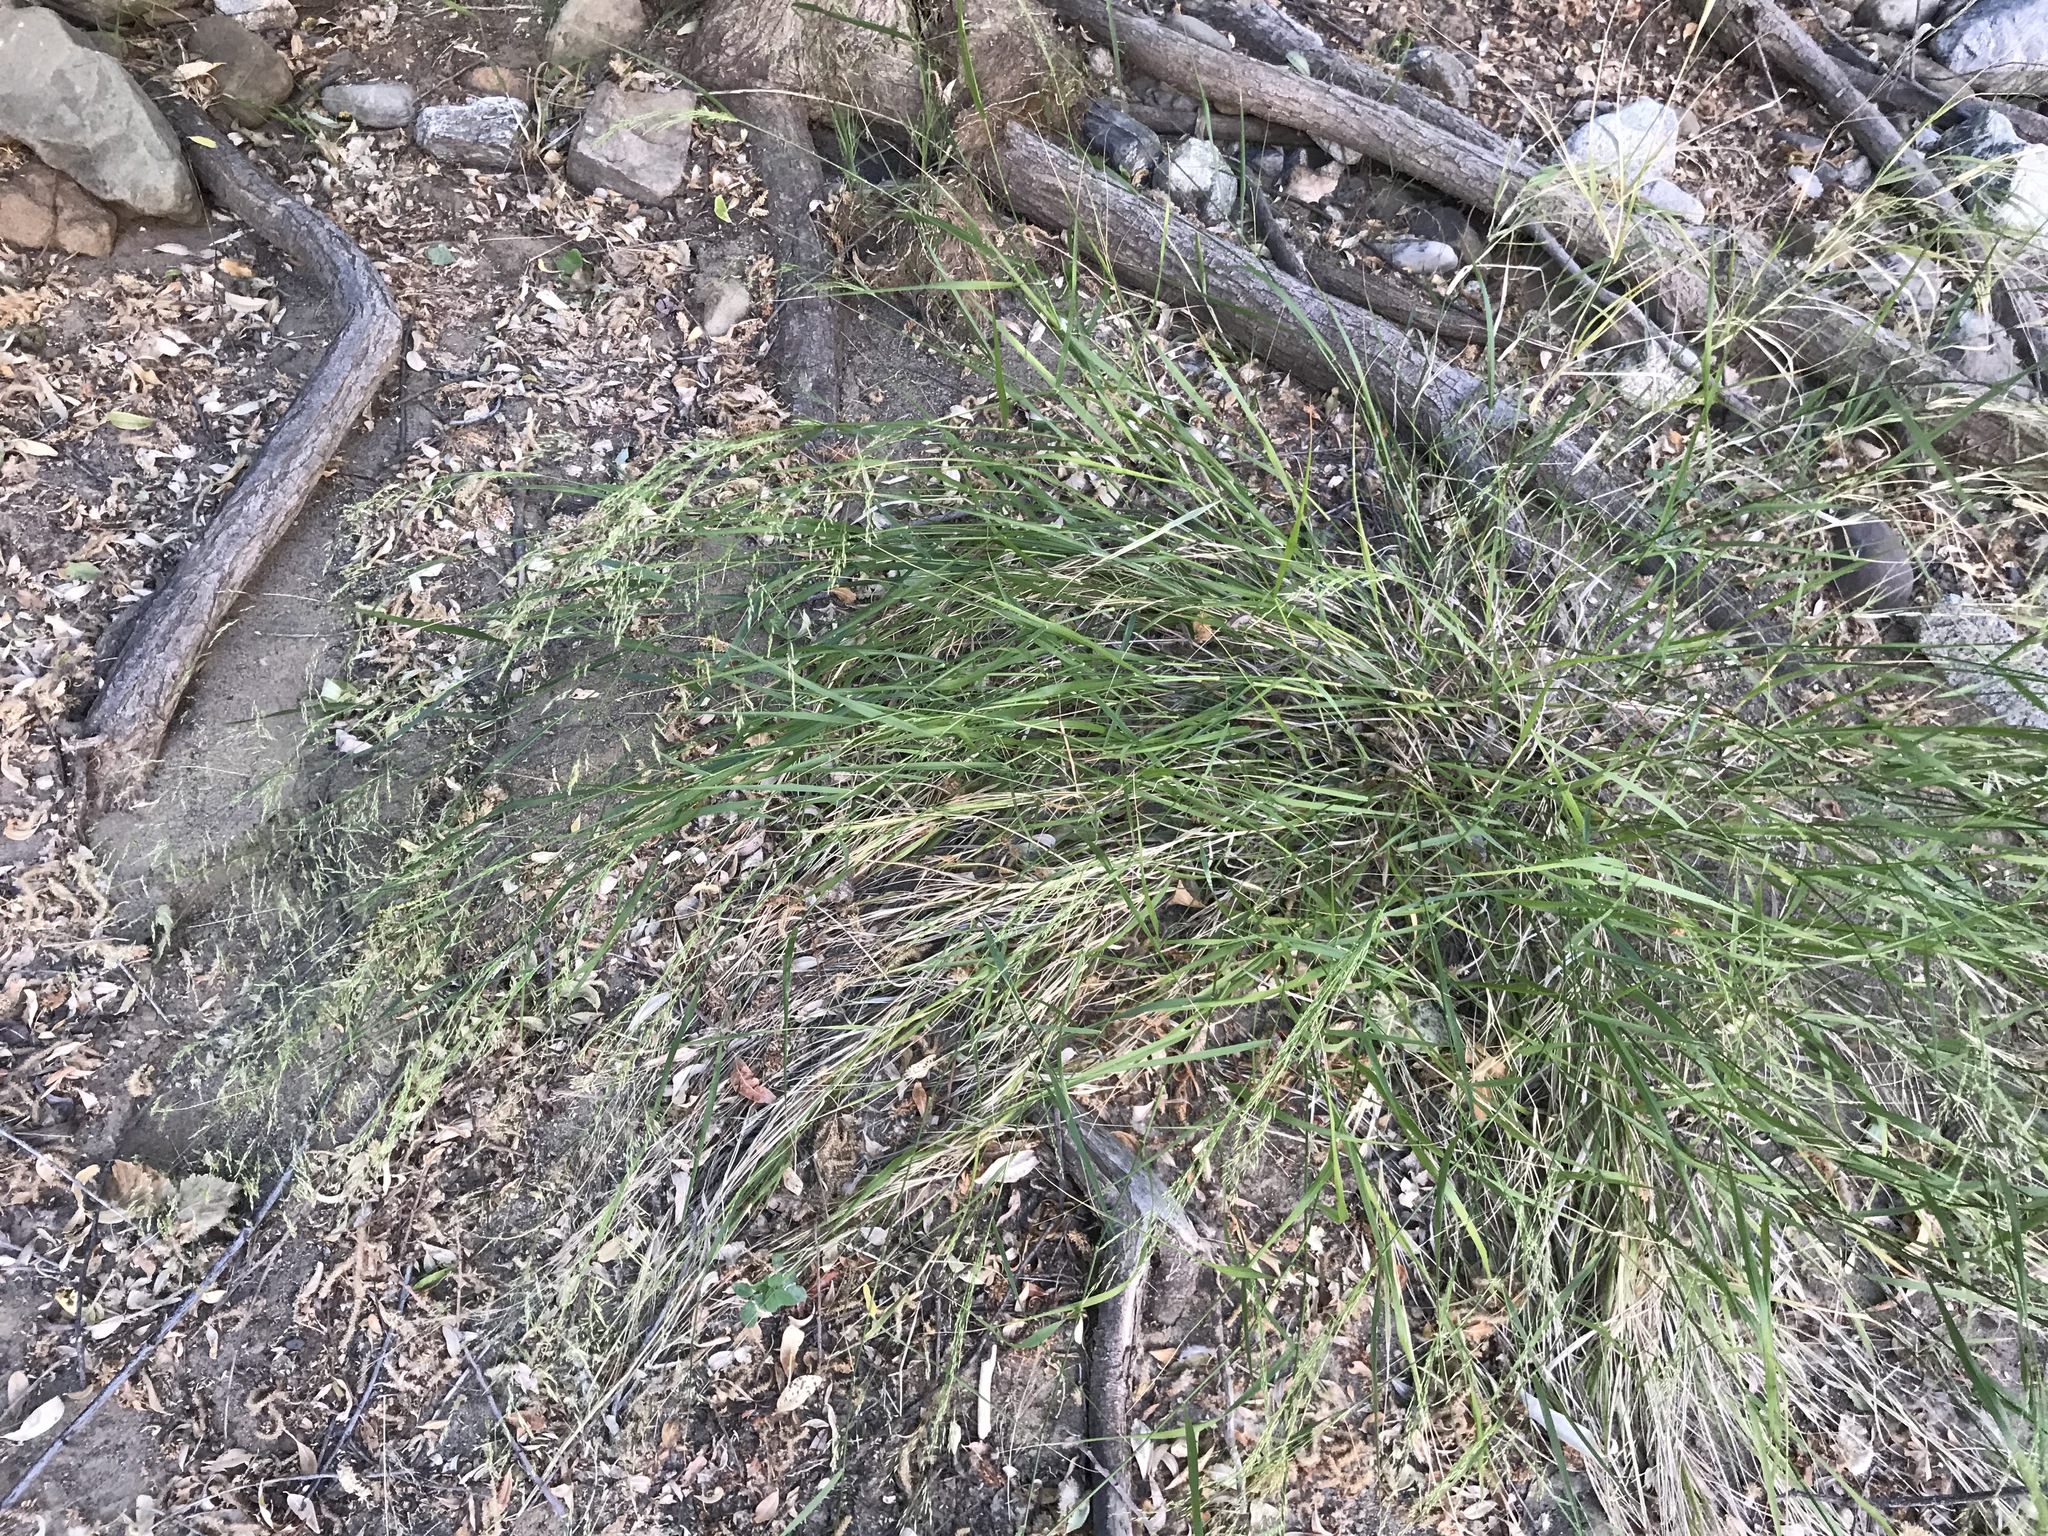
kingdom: Plantae
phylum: Tracheophyta
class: Liliopsida
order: Poales
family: Poaceae
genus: Oloptum
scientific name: Oloptum miliaceum
